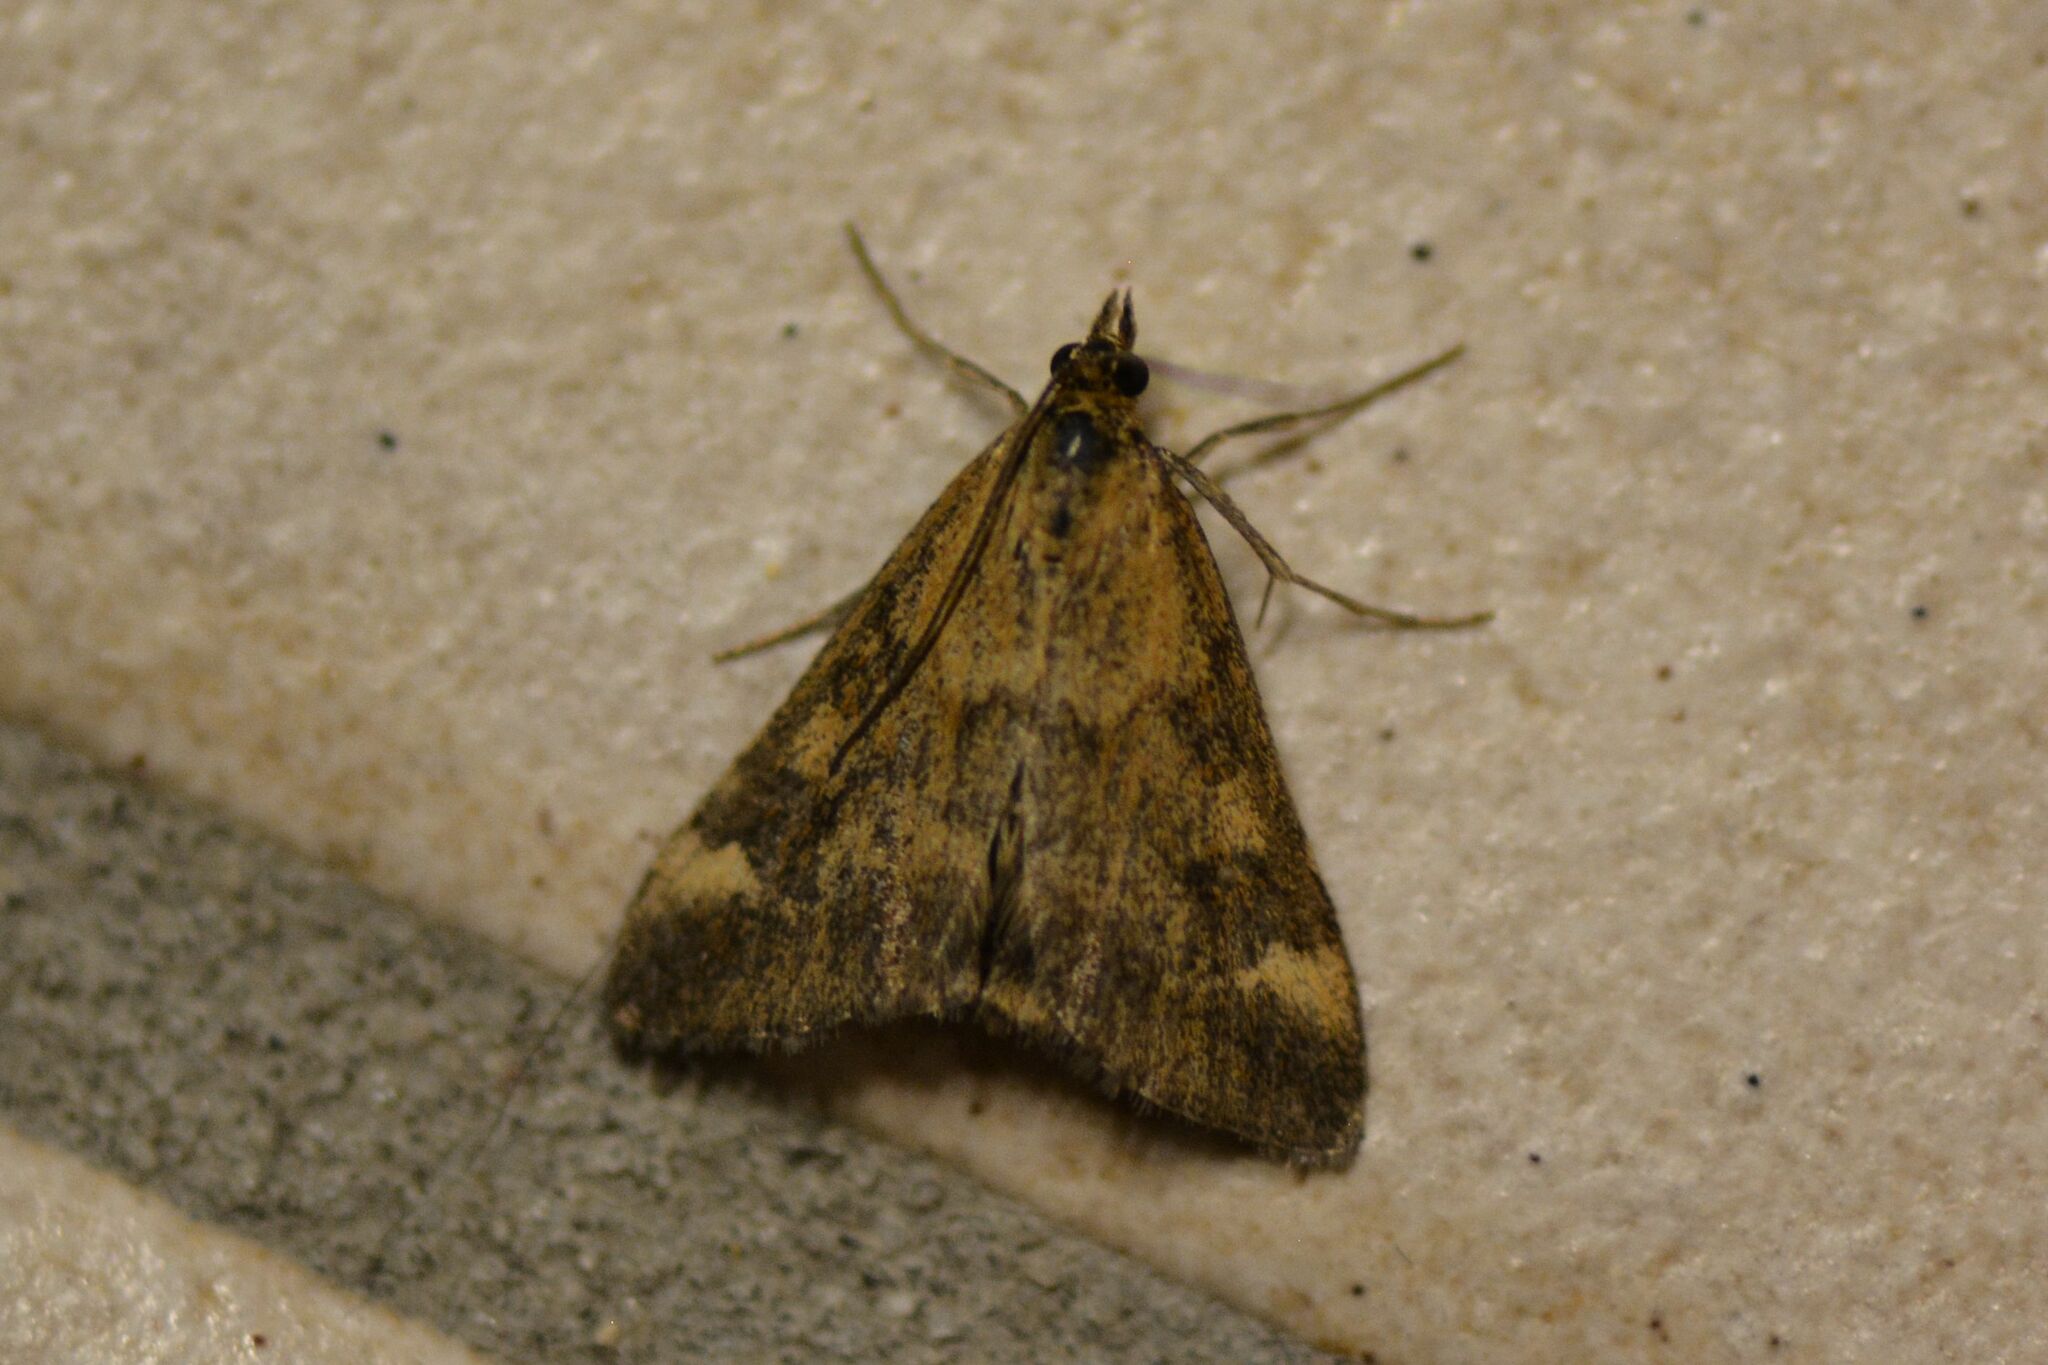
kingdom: Animalia
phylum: Arthropoda
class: Insecta
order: Lepidoptera
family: Crambidae
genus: Pyrausta
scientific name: Pyrausta despicata
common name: Straw-barred pearl
